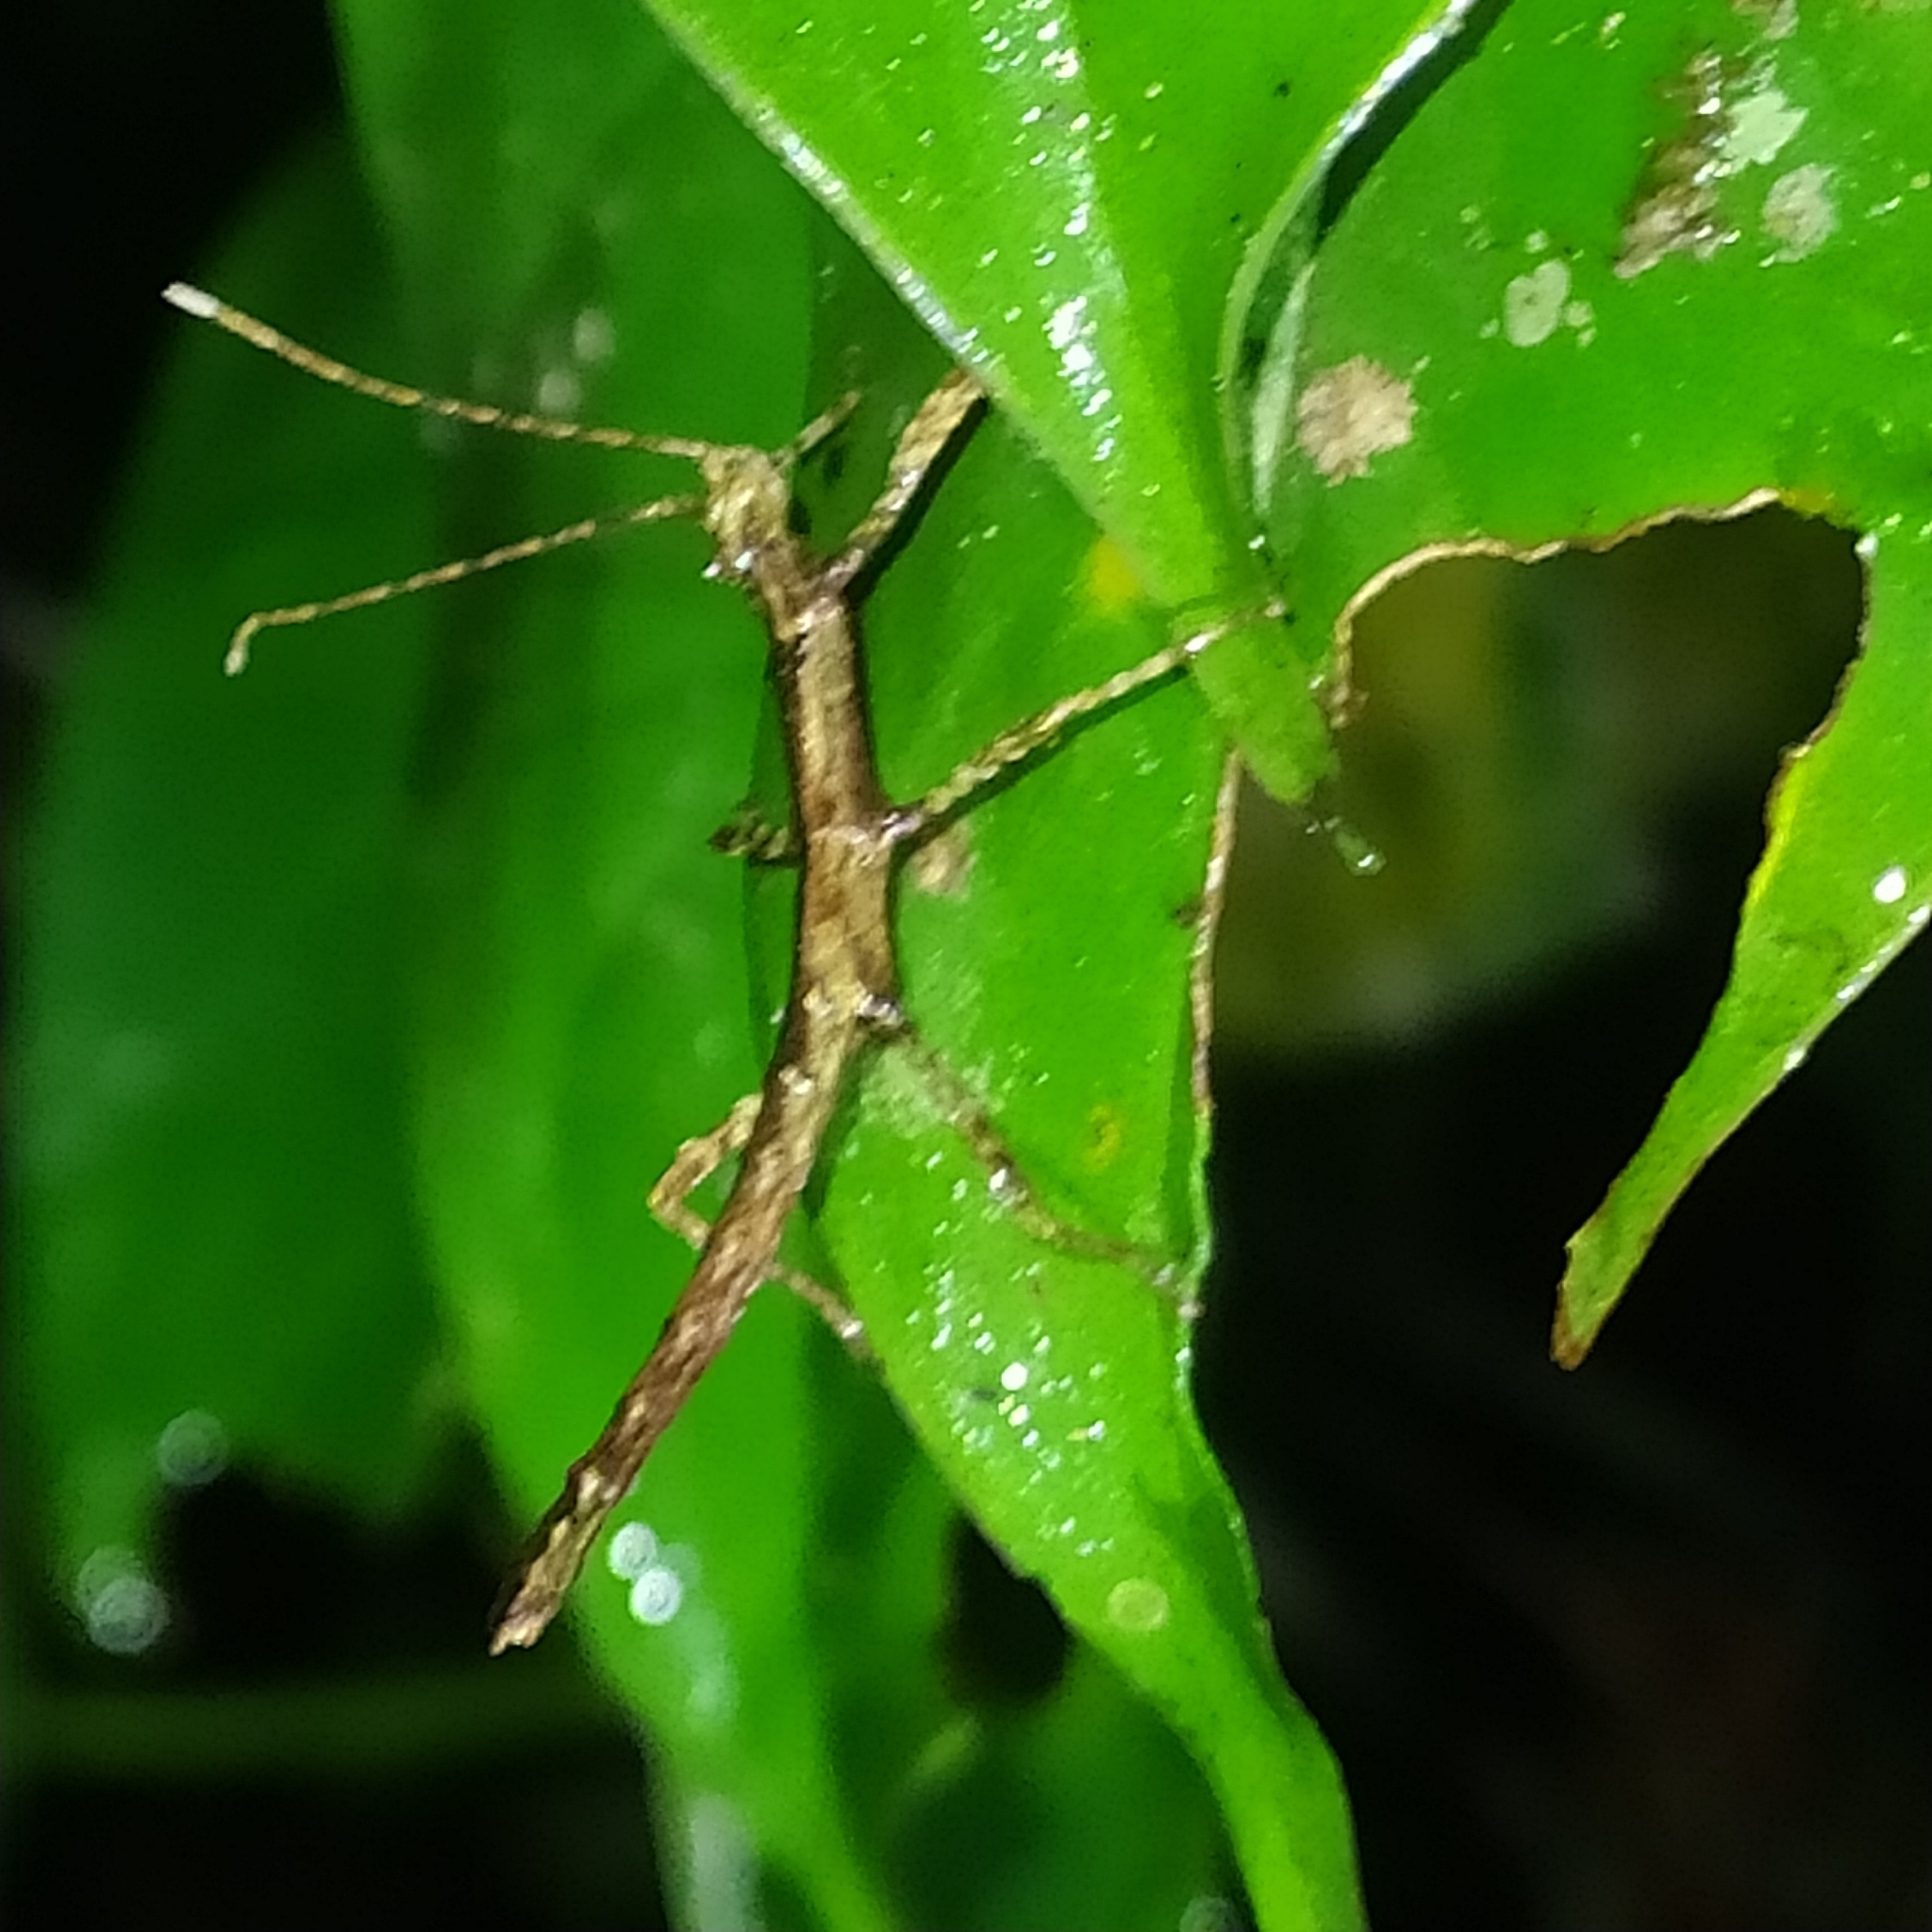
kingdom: Animalia
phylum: Arthropoda
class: Insecta
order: Phasmida
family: Pseudophasmatidae
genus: Creoxylus
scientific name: Creoxylus
